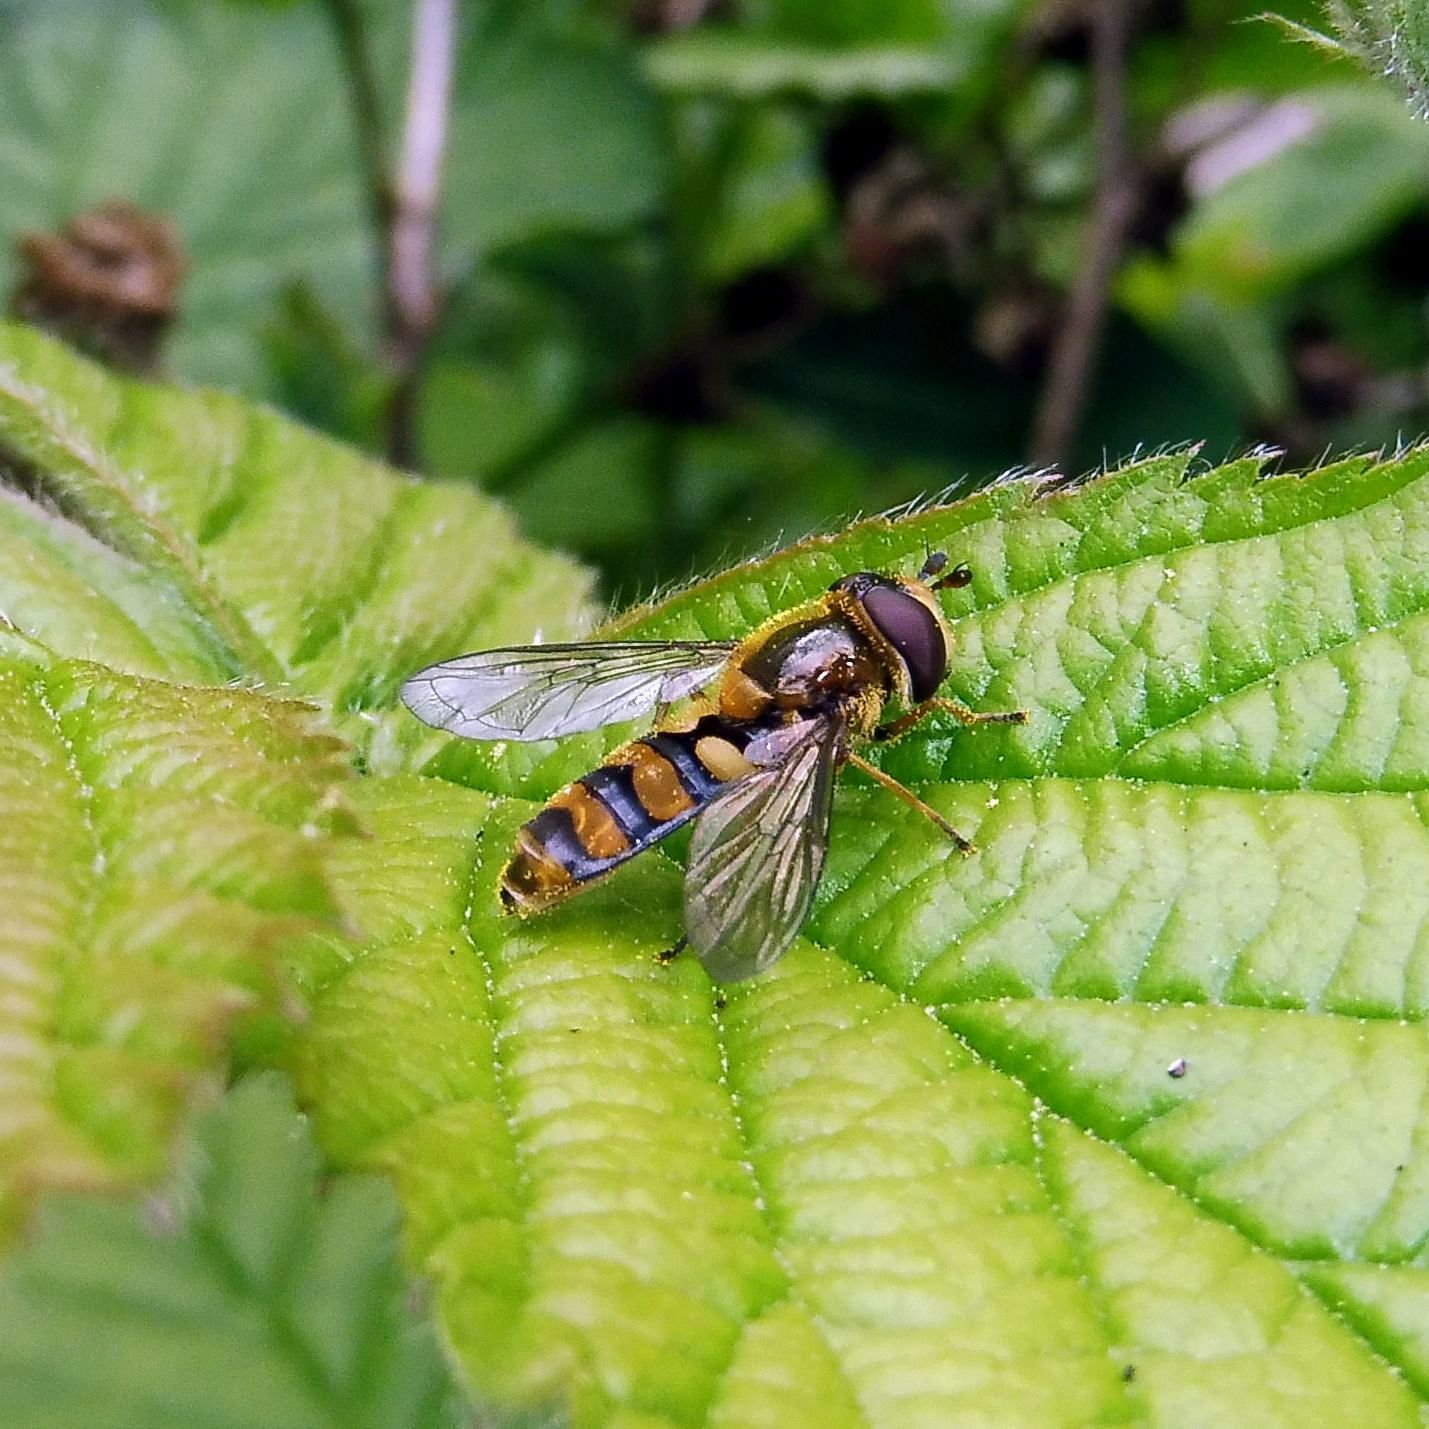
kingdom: Animalia
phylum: Arthropoda
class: Insecta
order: Diptera
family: Syrphidae
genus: Eupeodes
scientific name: Eupeodes latifasciatus
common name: Variable aphideater
